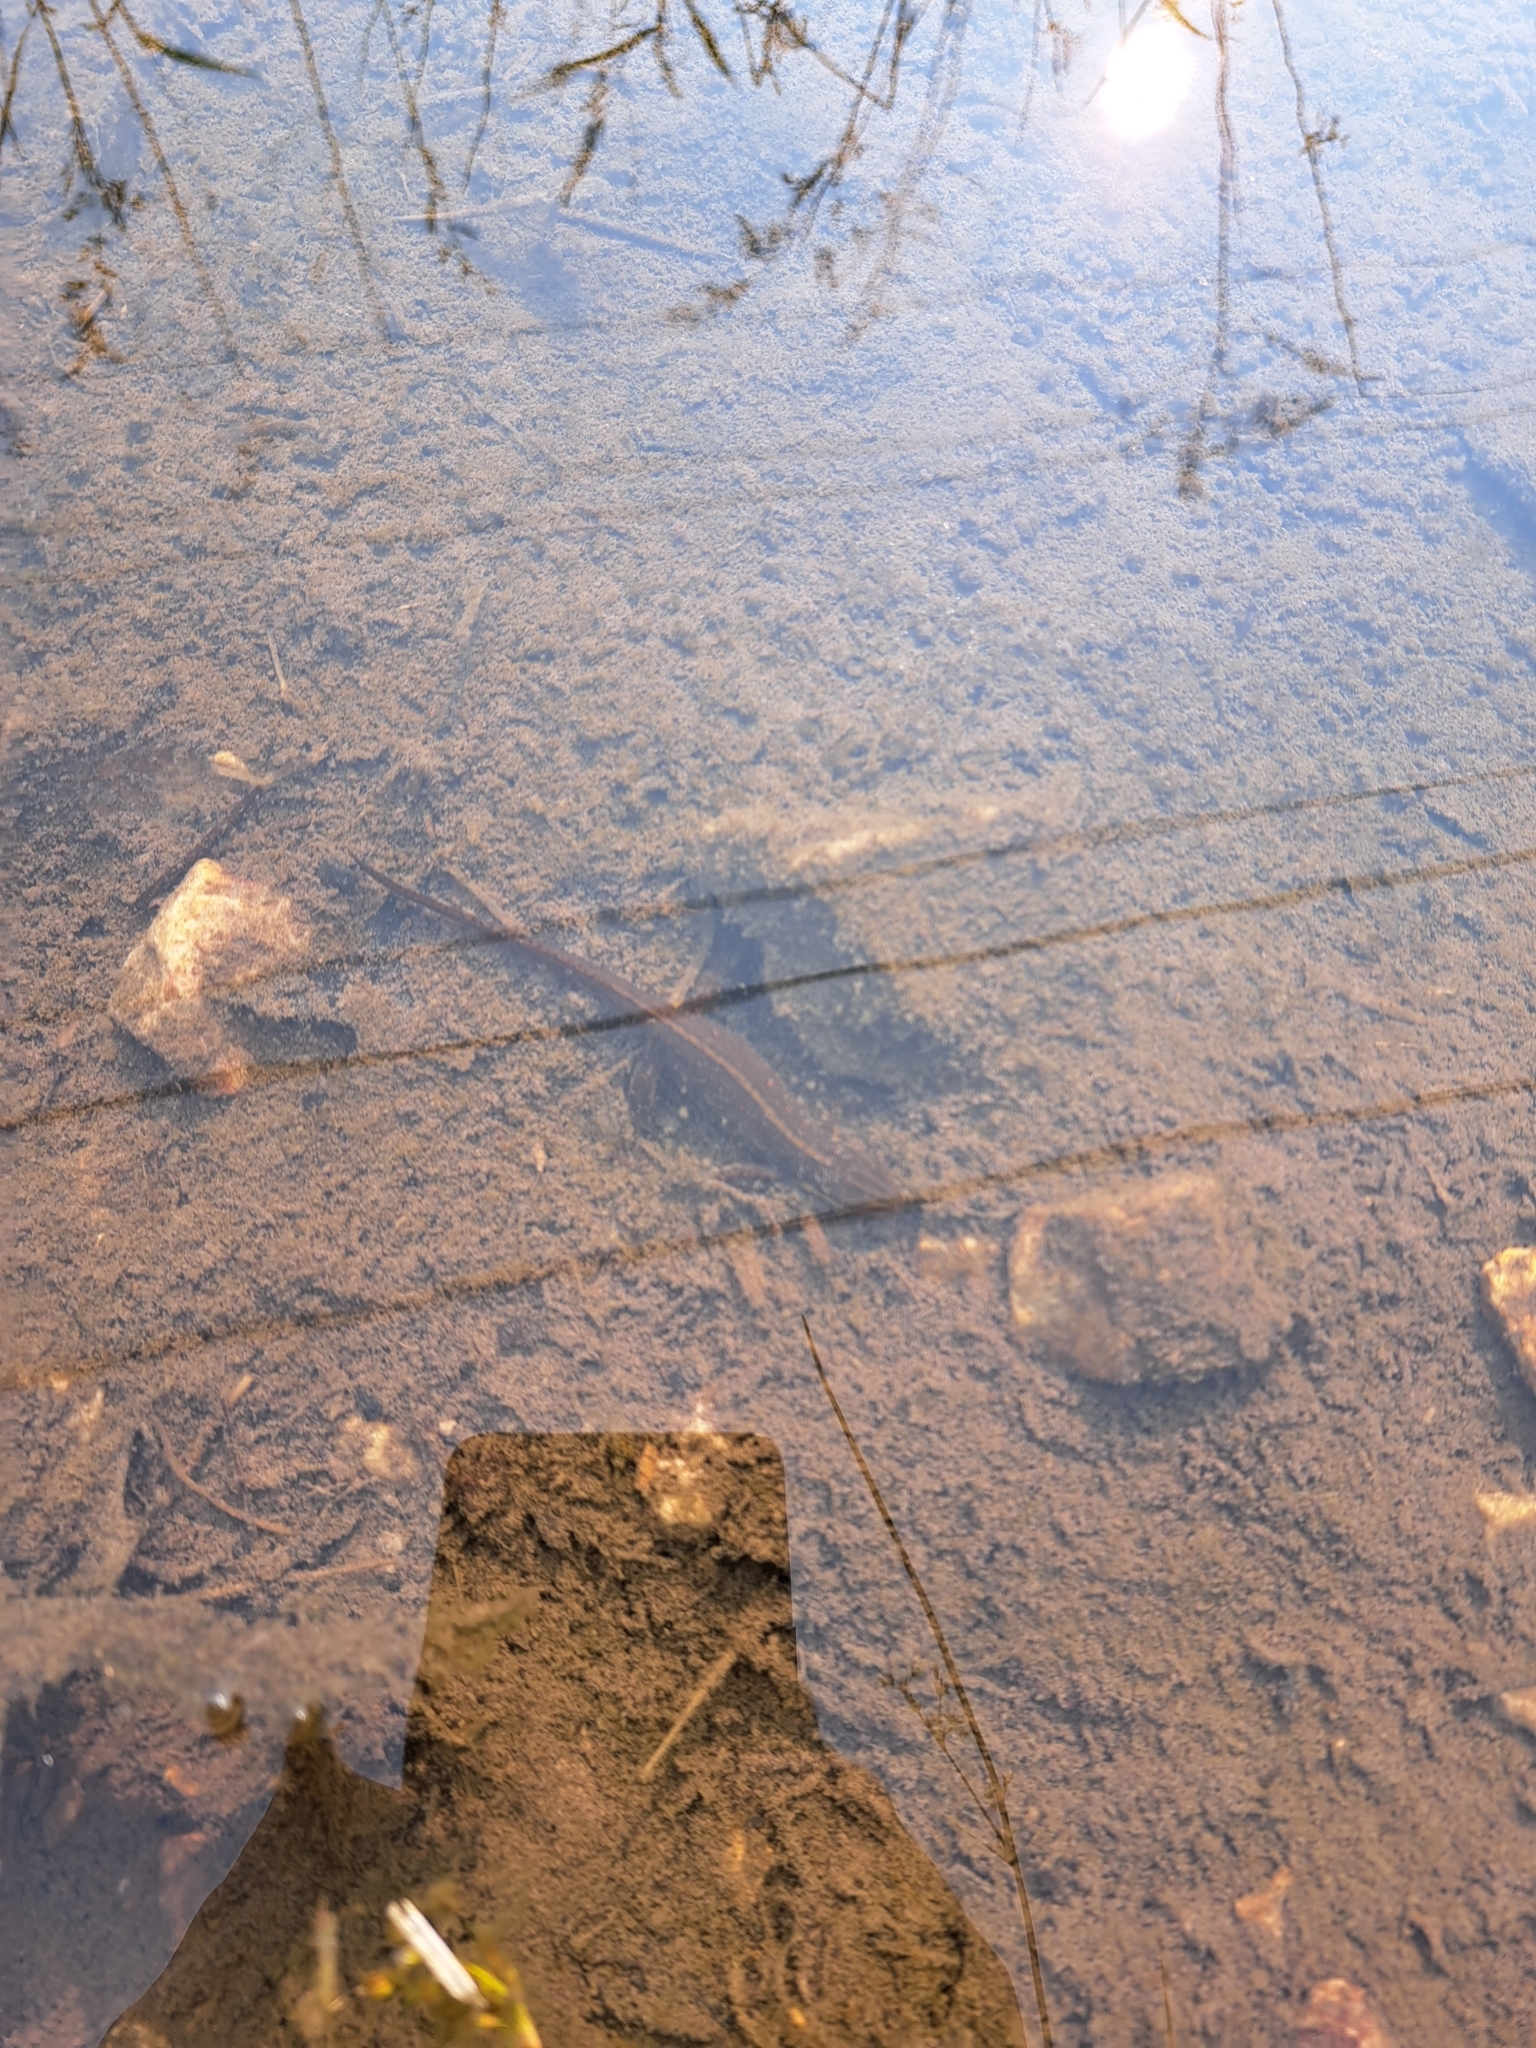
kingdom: Animalia
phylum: Chordata
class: Amphibia
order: Caudata
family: Salamandridae
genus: Notophthalmus
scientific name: Notophthalmus viridescens
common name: Eastern newt
